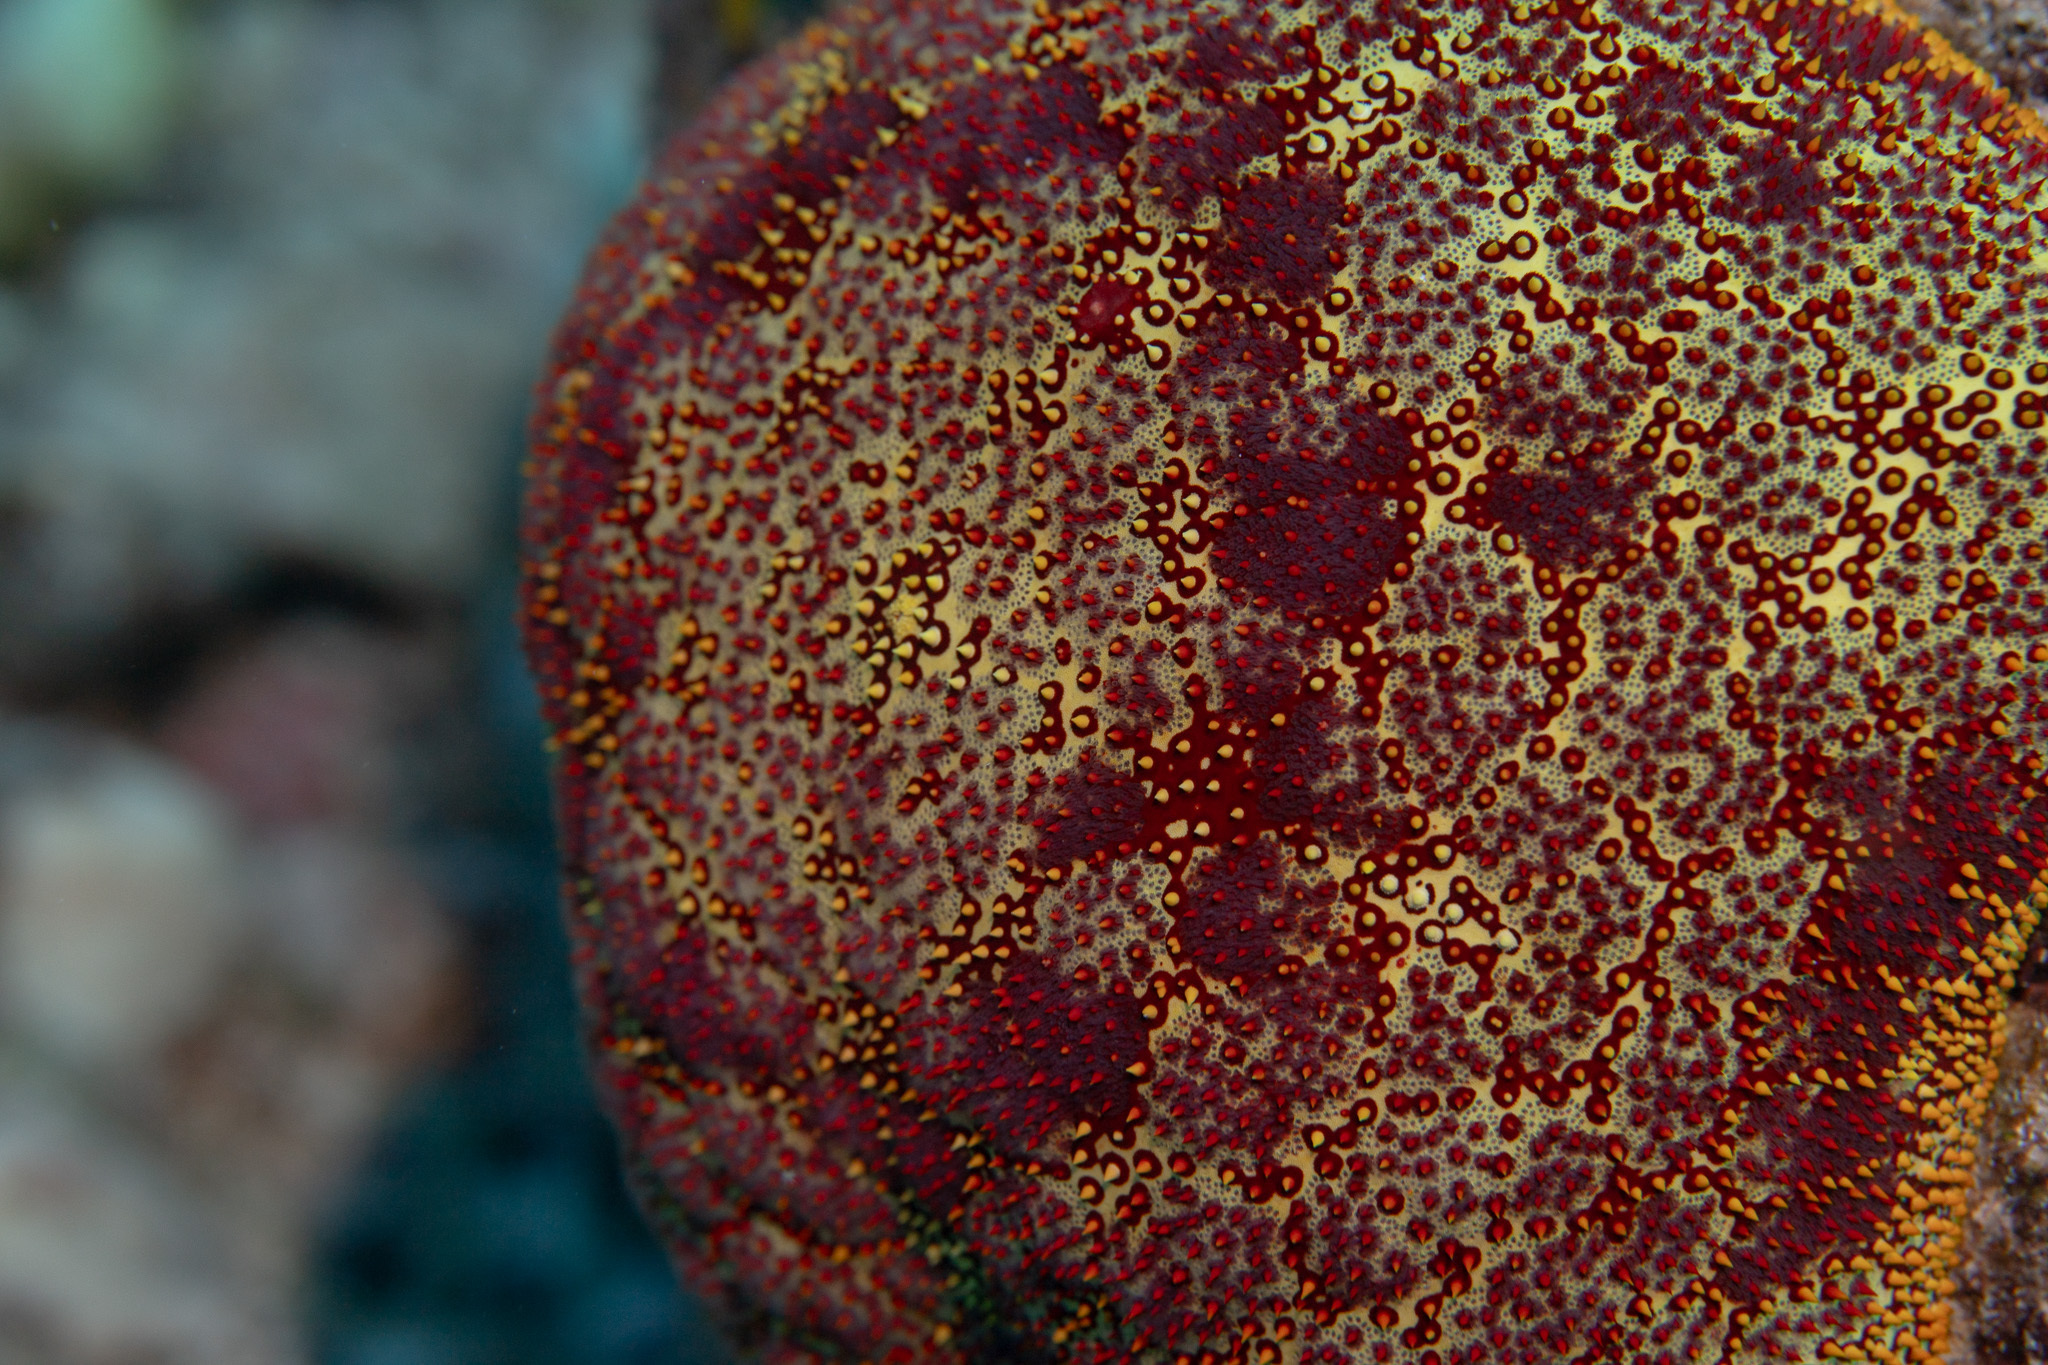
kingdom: Animalia
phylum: Echinodermata
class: Asteroidea
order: Valvatida
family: Oreasteridae
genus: Culcita
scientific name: Culcita novaeguineae
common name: Cushion star
